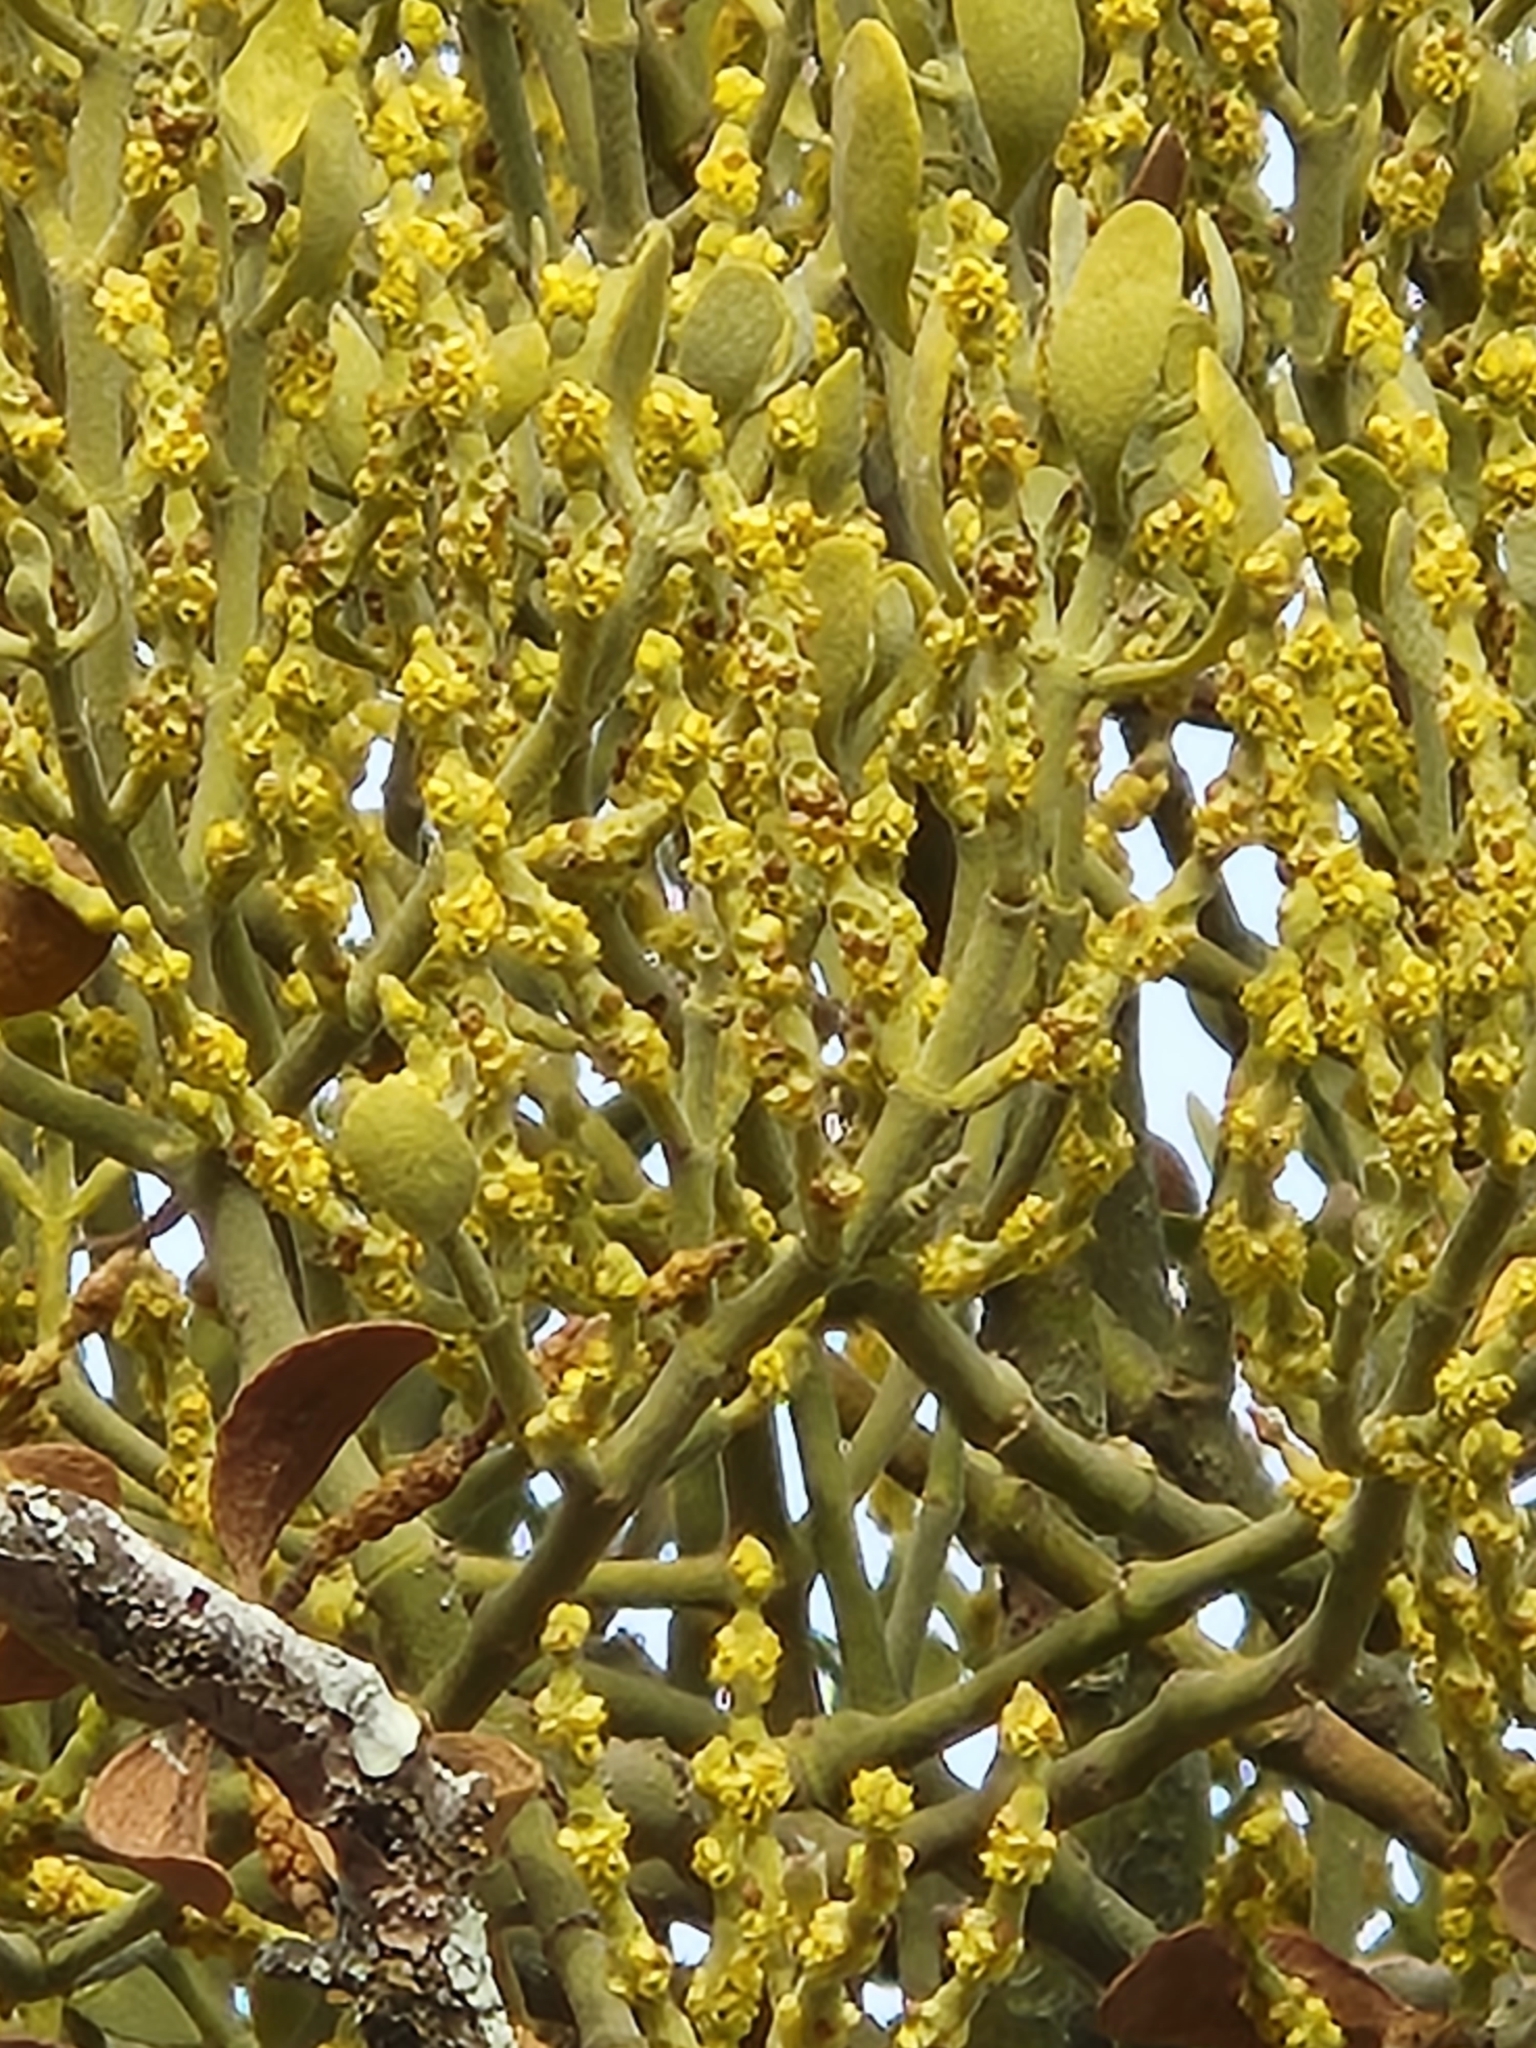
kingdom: Plantae
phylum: Tracheophyta
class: Magnoliopsida
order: Santalales
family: Viscaceae
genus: Phoradendron
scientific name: Phoradendron leucarpum
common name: Pacific mistletoe
